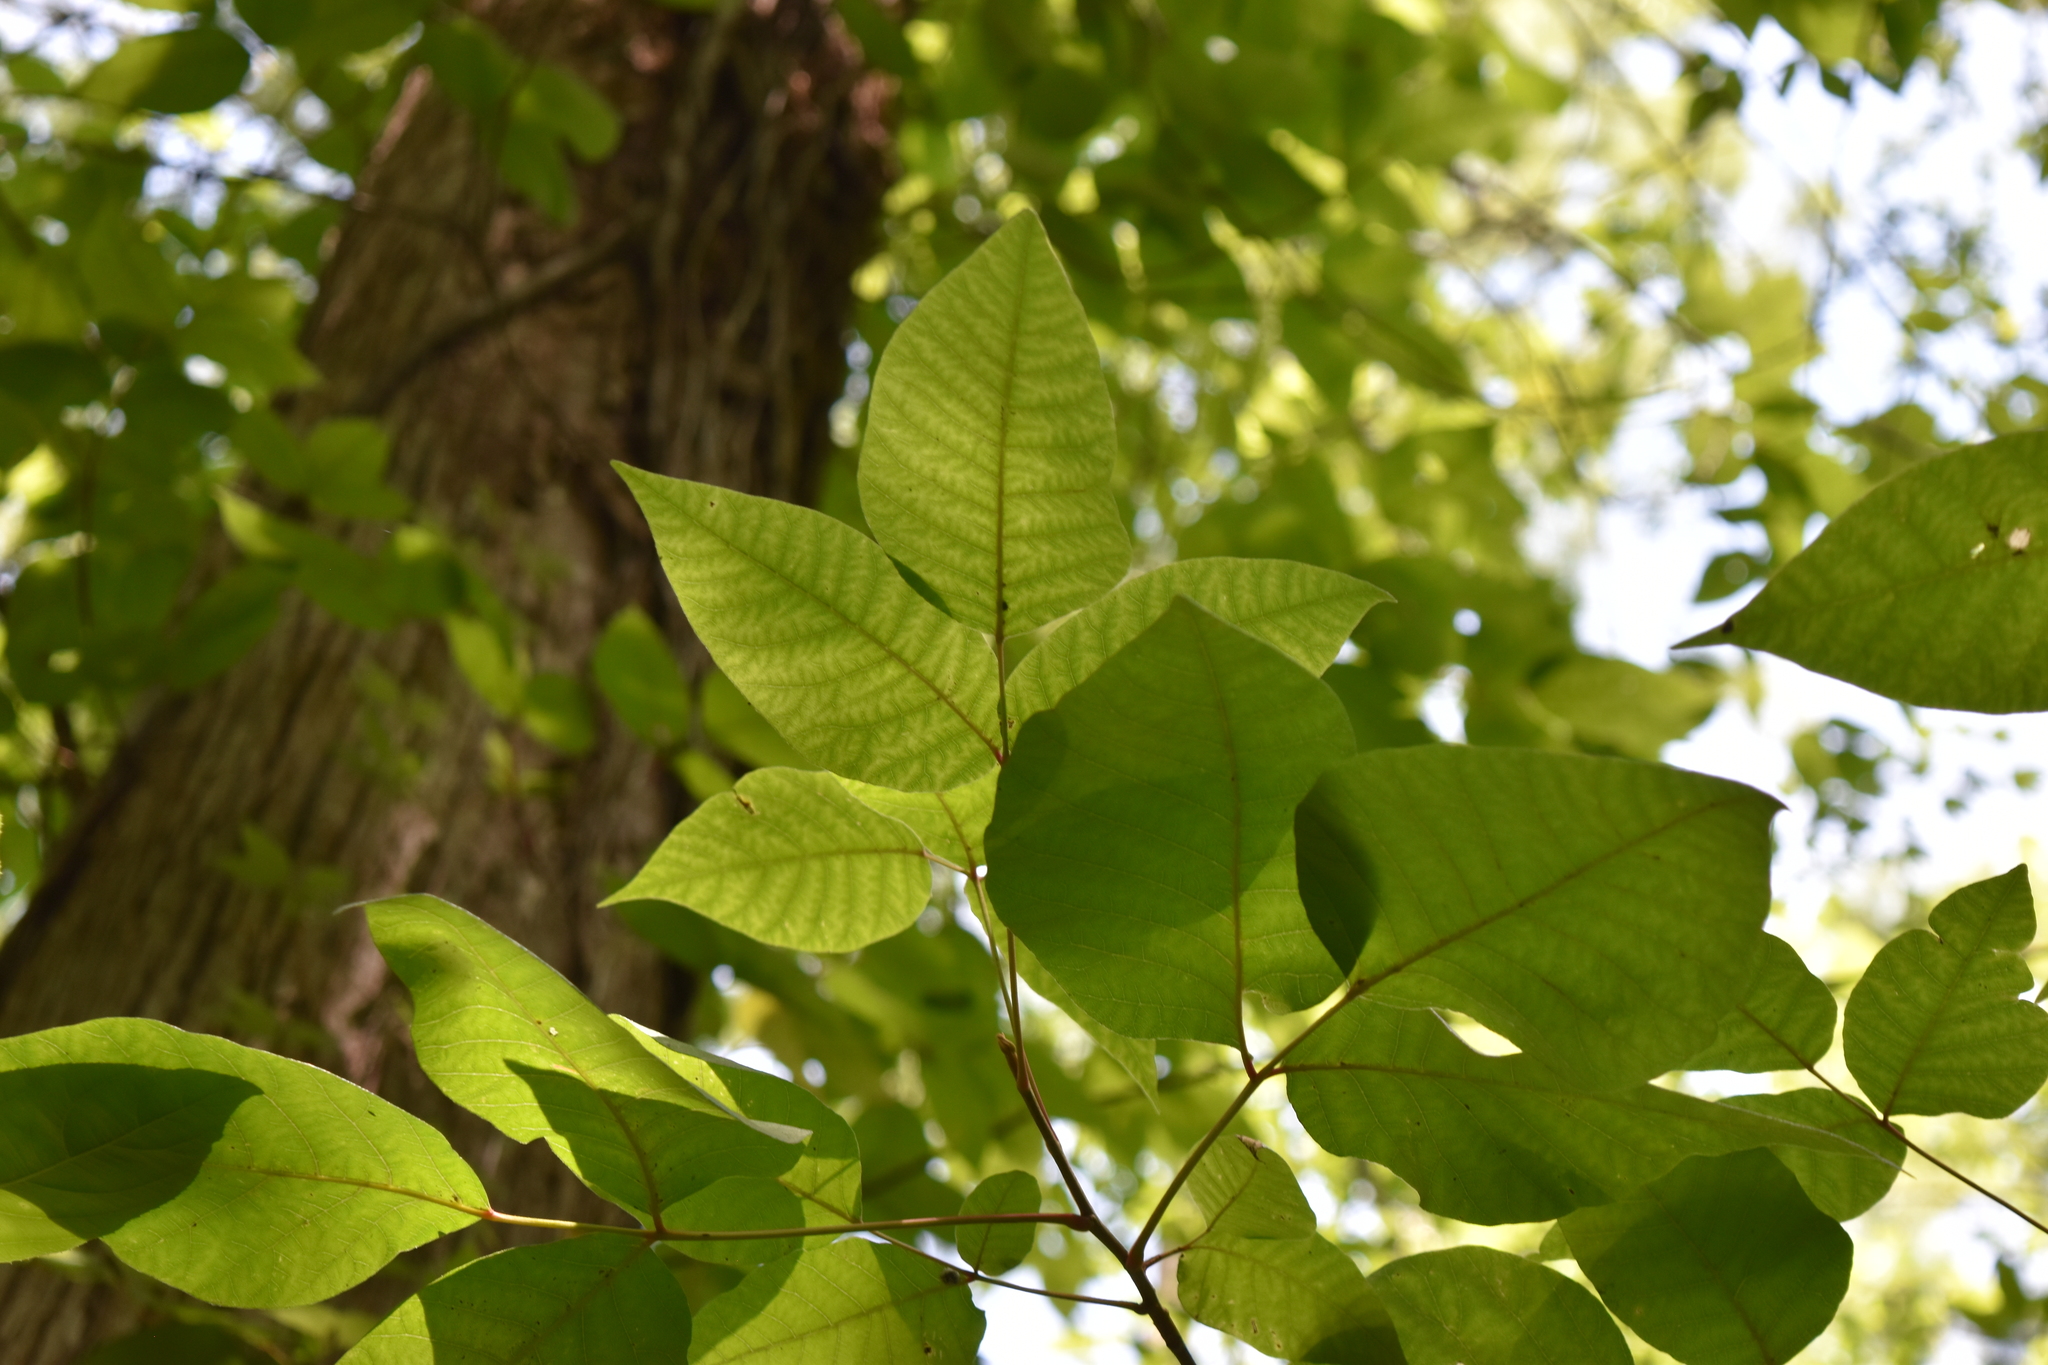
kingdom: Plantae
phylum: Tracheophyta
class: Magnoliopsida
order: Sapindales
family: Anacardiaceae
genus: Toxicodendron
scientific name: Toxicodendron radicans
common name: Poison ivy
